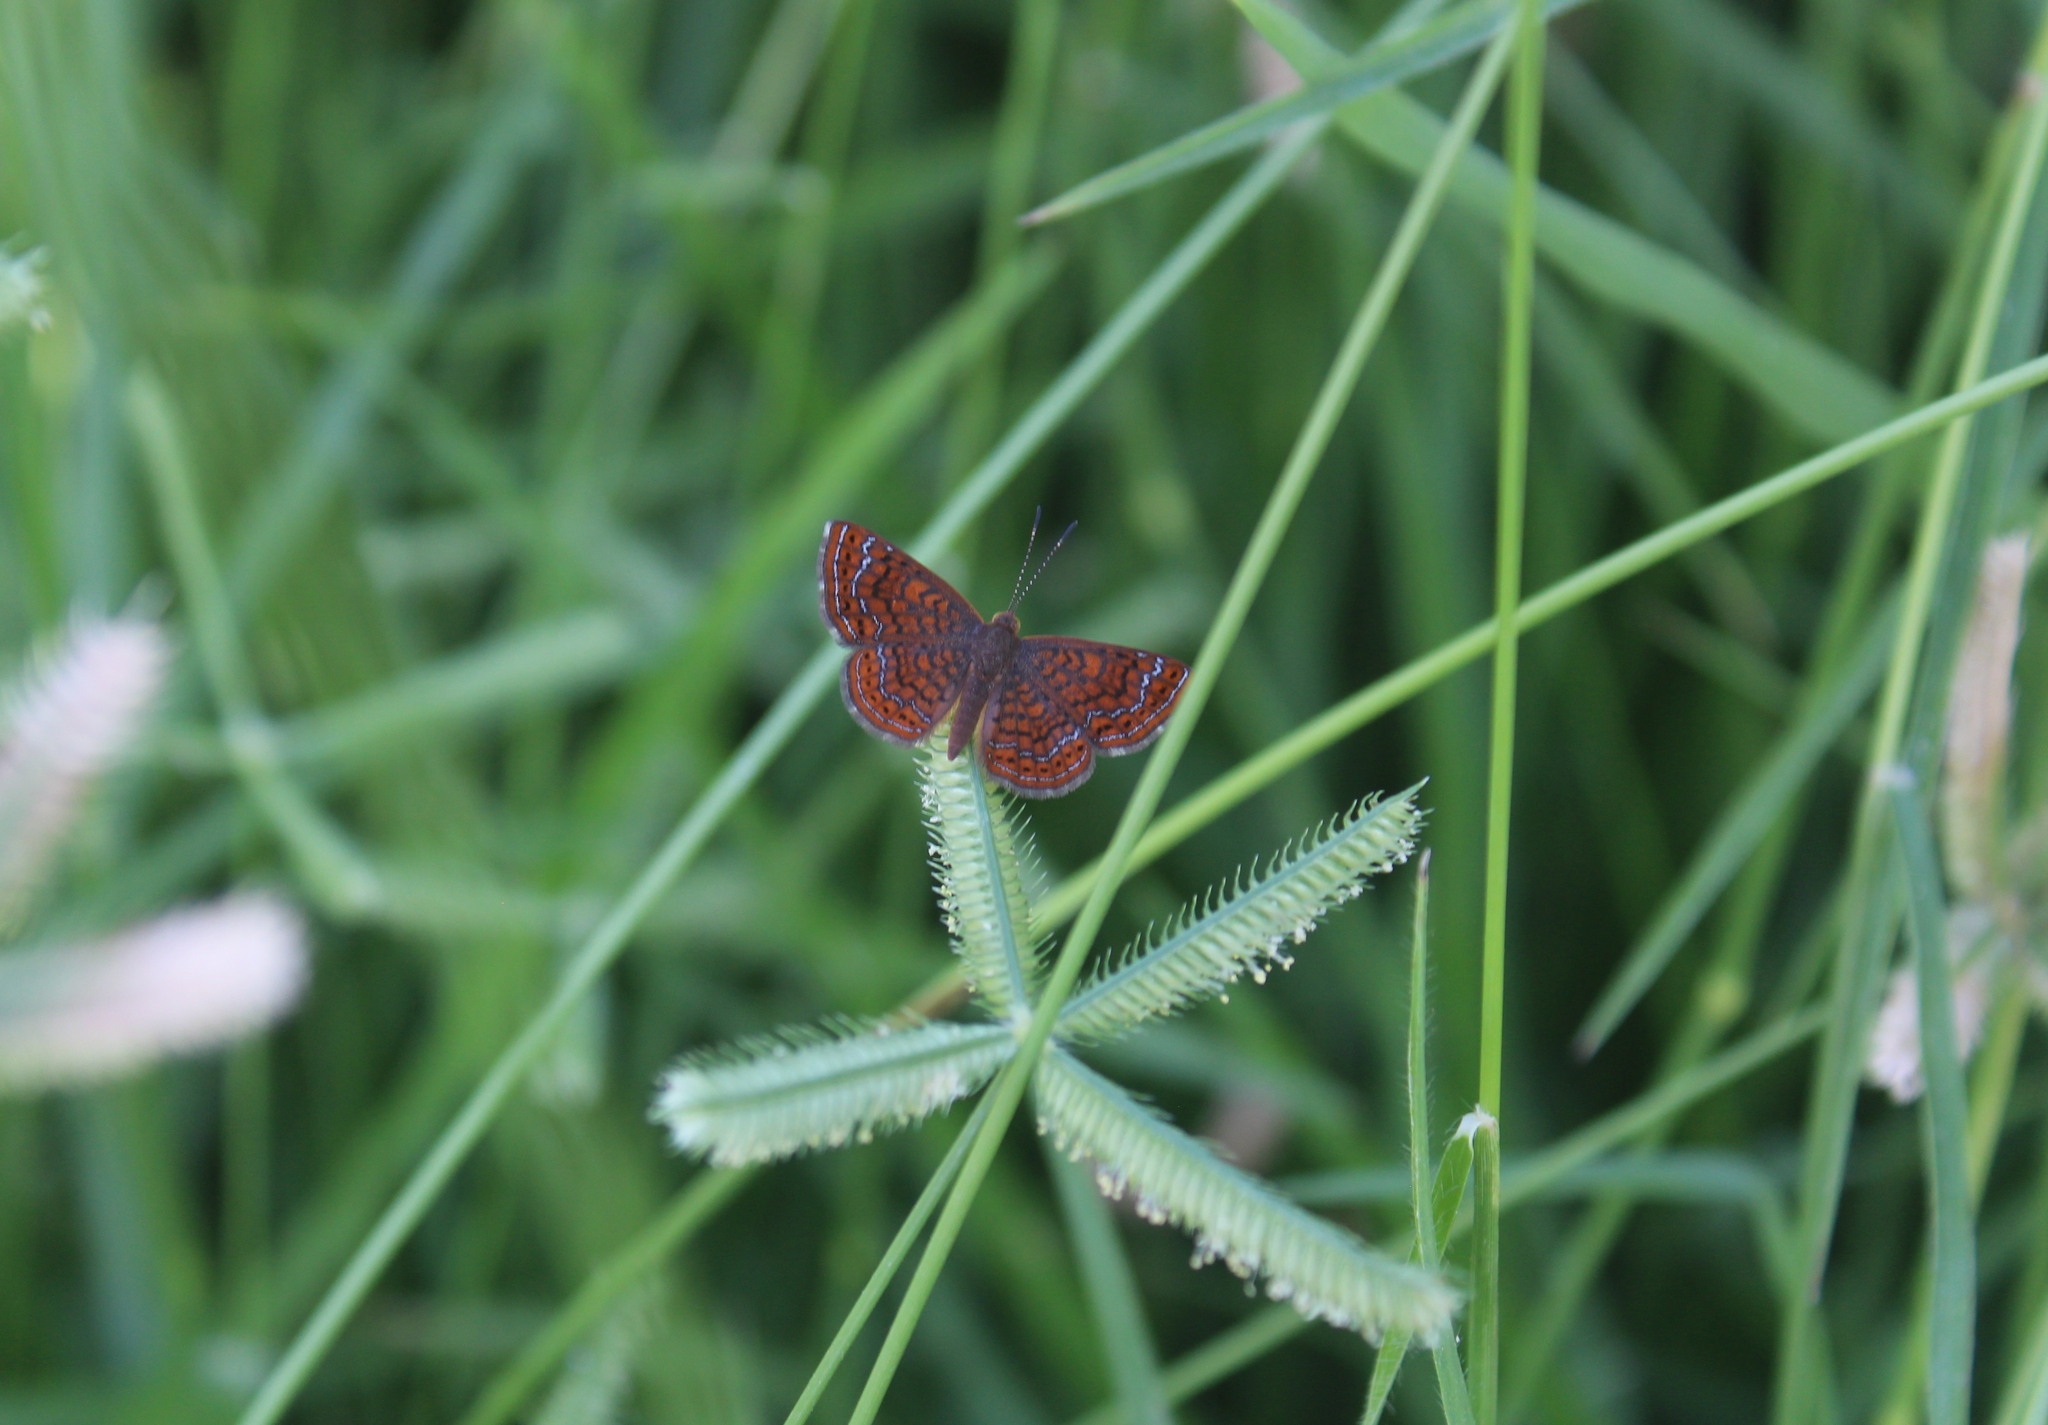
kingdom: Animalia
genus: Calephelis
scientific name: Calephelis perditalis
